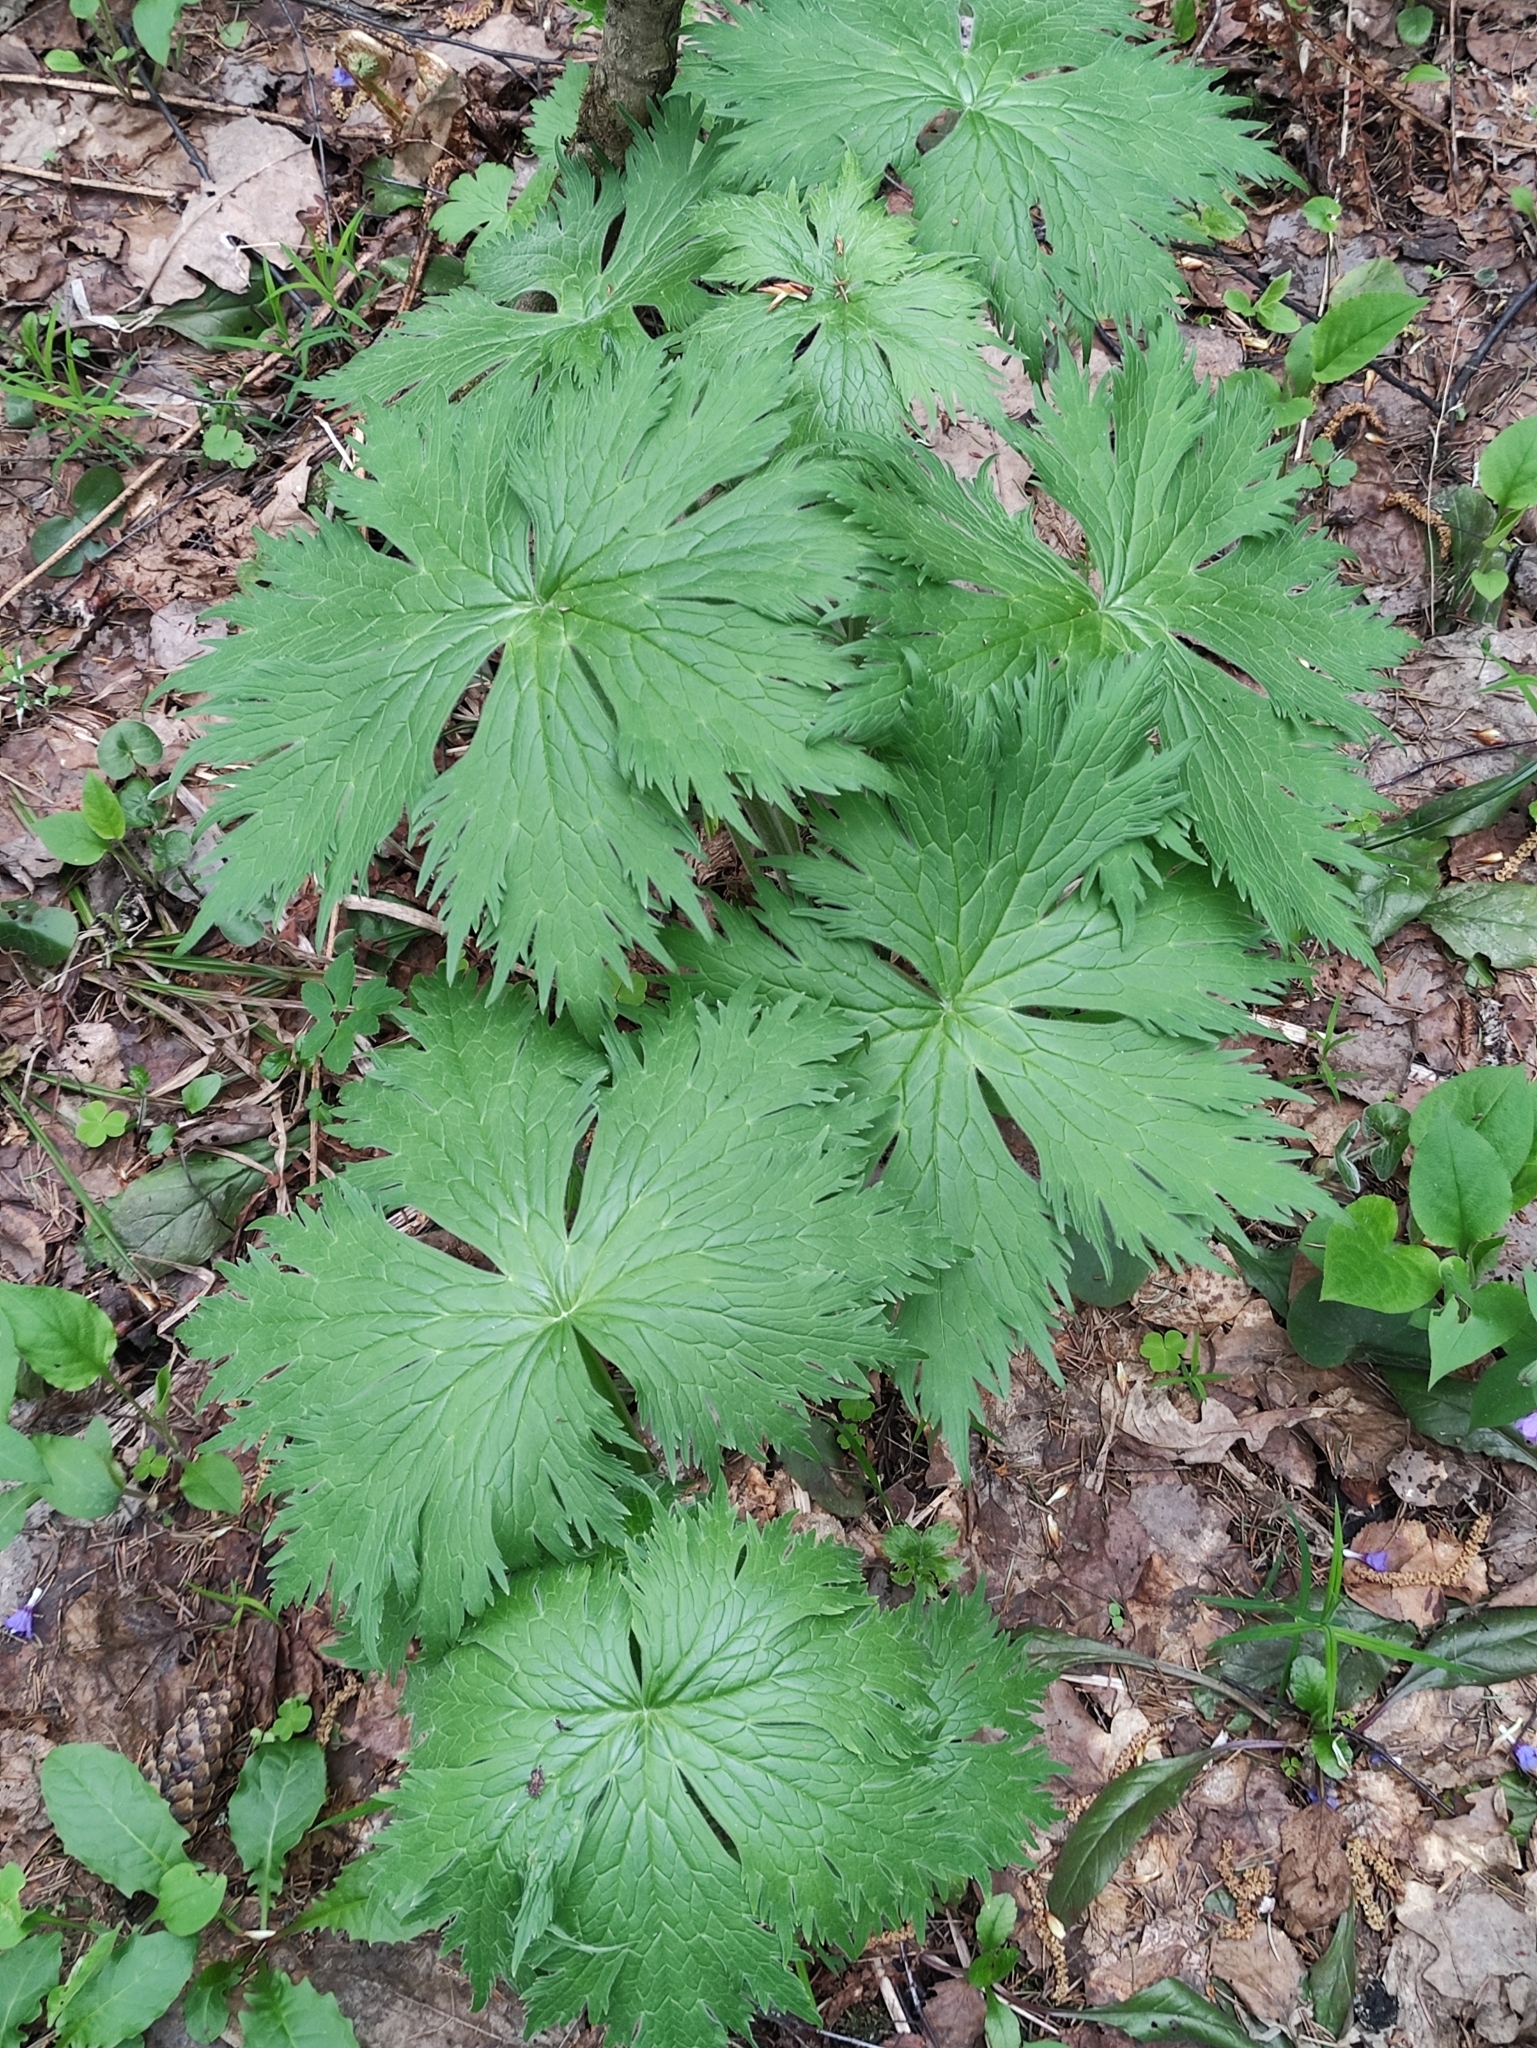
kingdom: Plantae
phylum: Tracheophyta
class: Magnoliopsida
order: Ranunculales
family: Ranunculaceae
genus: Aconitum
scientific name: Aconitum septentrionale
